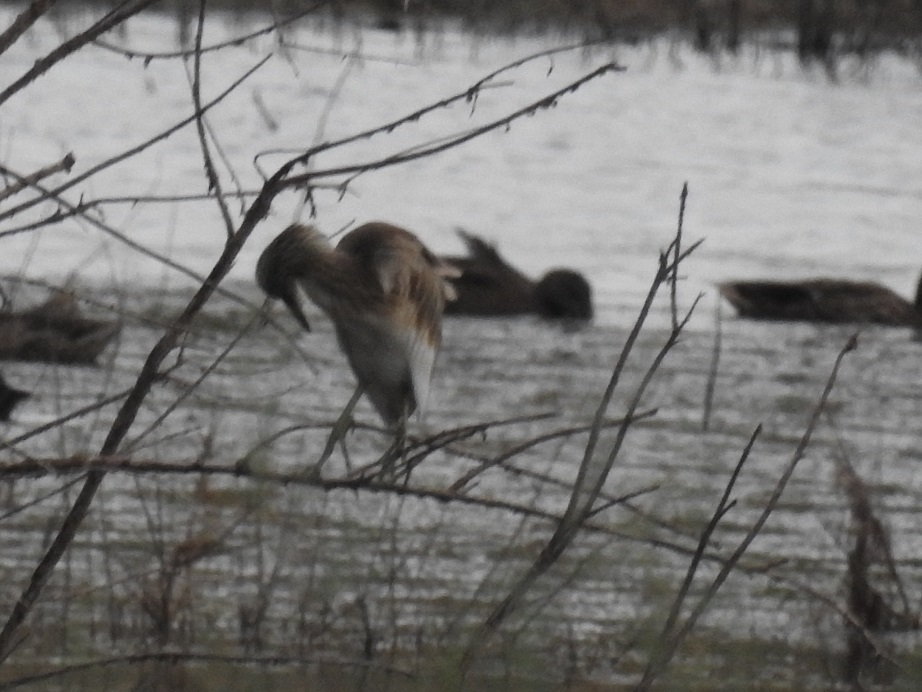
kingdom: Animalia
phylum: Chordata
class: Aves
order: Pelecaniformes
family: Ardeidae
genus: Ardeola
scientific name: Ardeola ralloides
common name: Squacco heron
